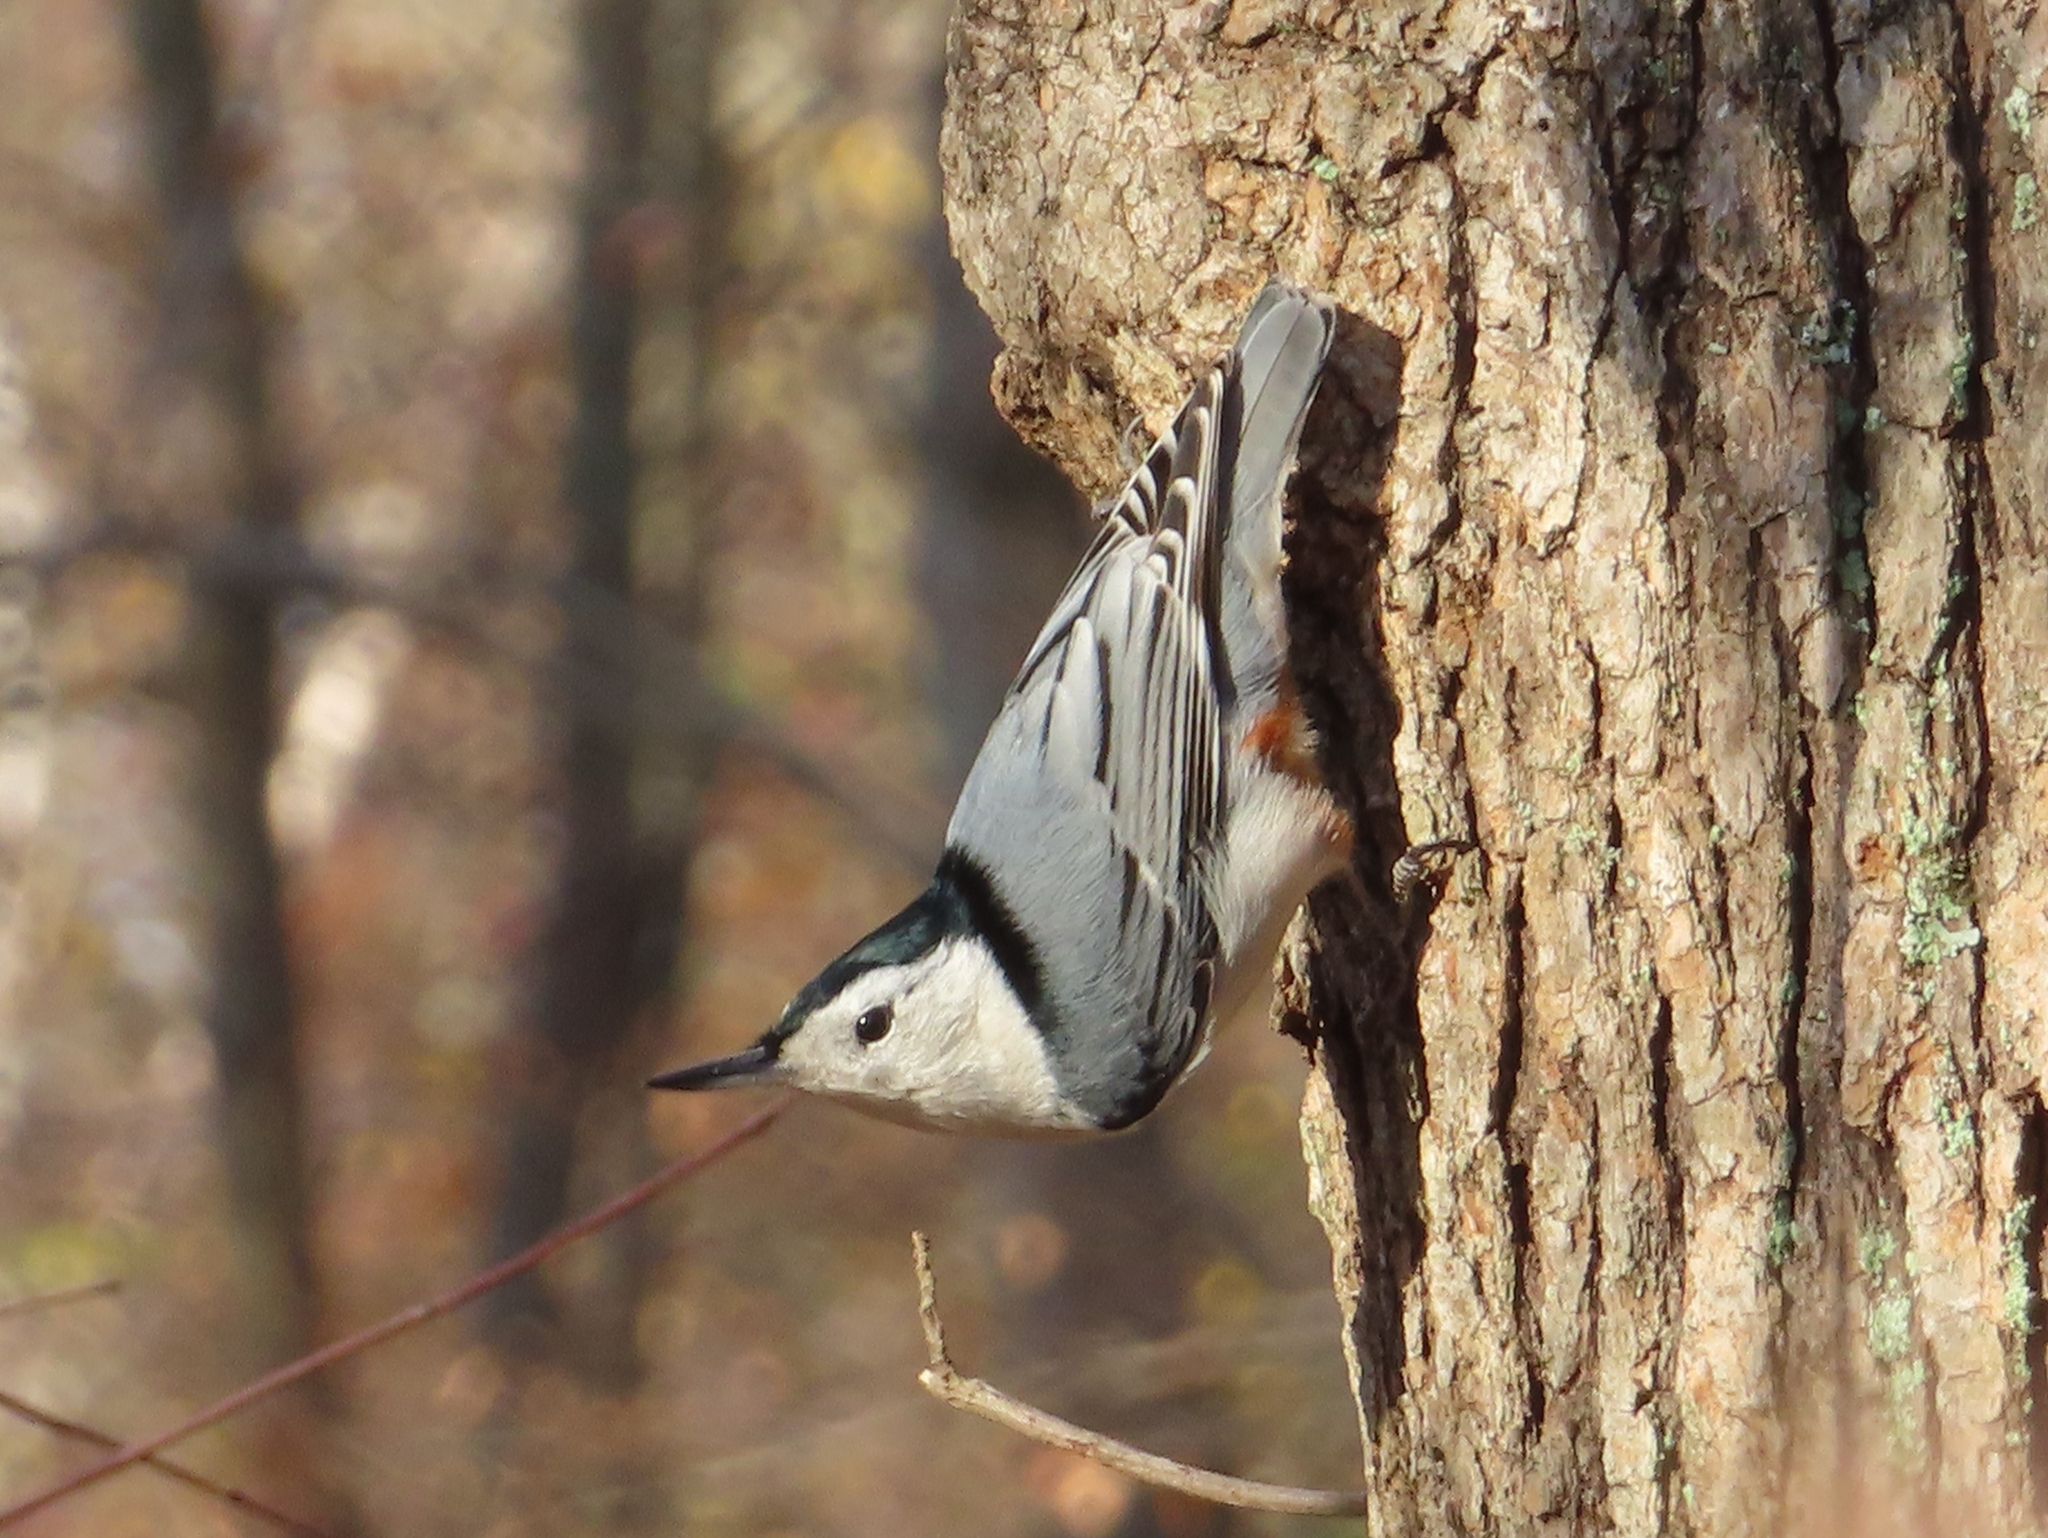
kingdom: Animalia
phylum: Chordata
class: Aves
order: Passeriformes
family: Sittidae
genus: Sitta
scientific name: Sitta carolinensis
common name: White-breasted nuthatch
